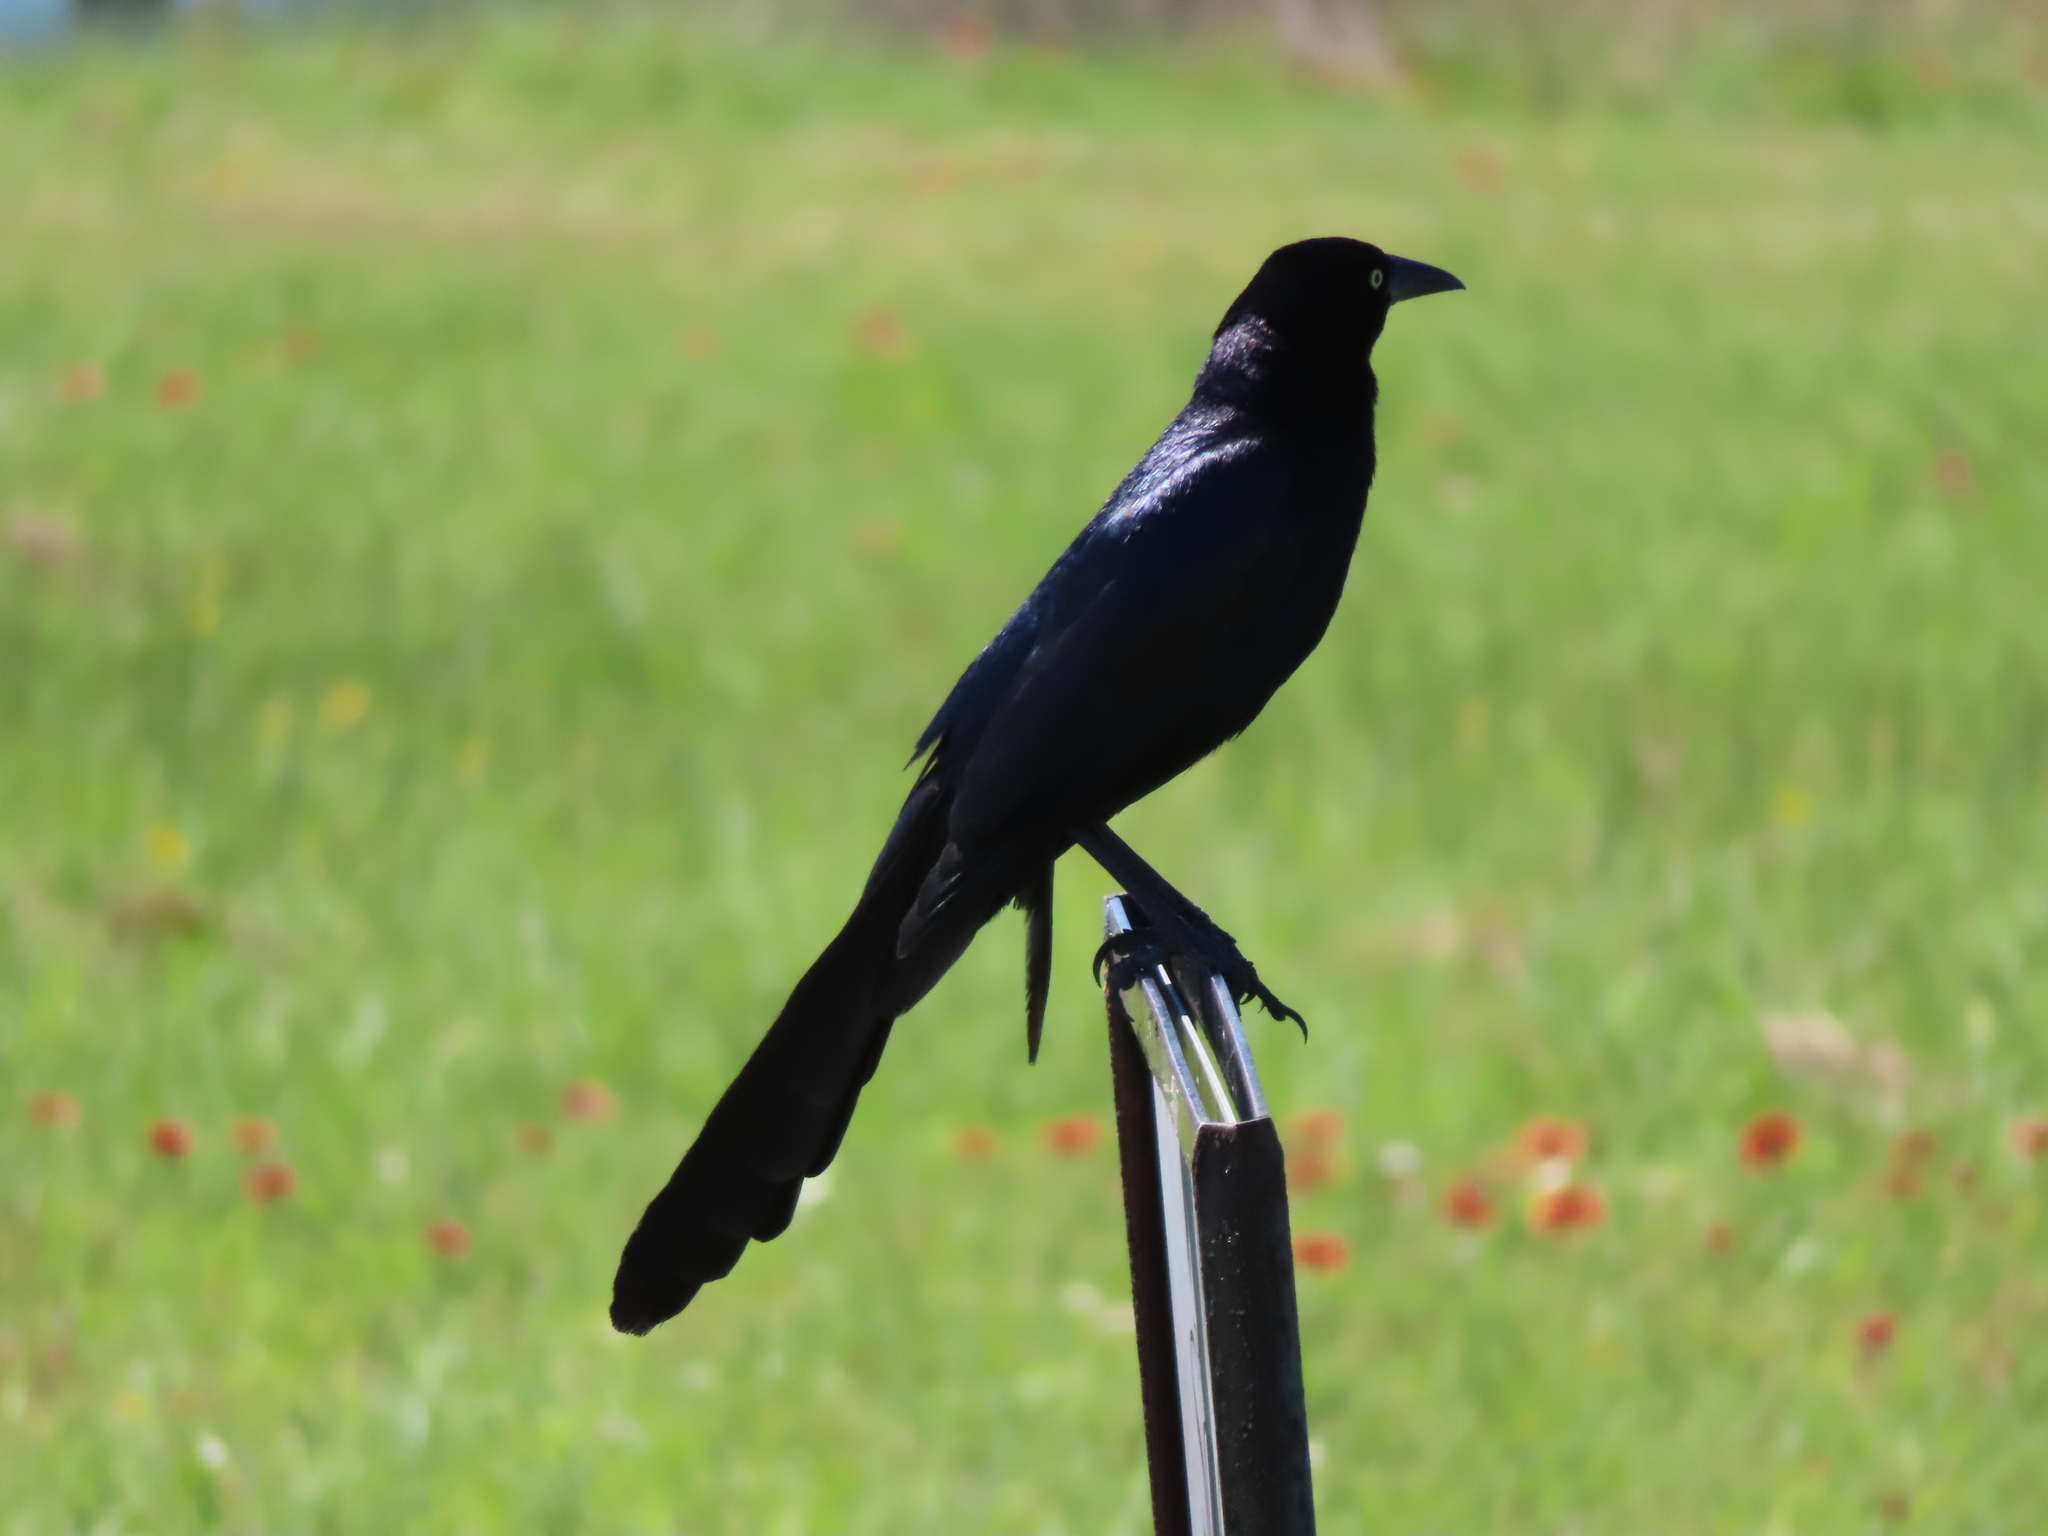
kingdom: Animalia
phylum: Chordata
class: Aves
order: Passeriformes
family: Icteridae
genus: Quiscalus
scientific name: Quiscalus mexicanus
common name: Great-tailed grackle
